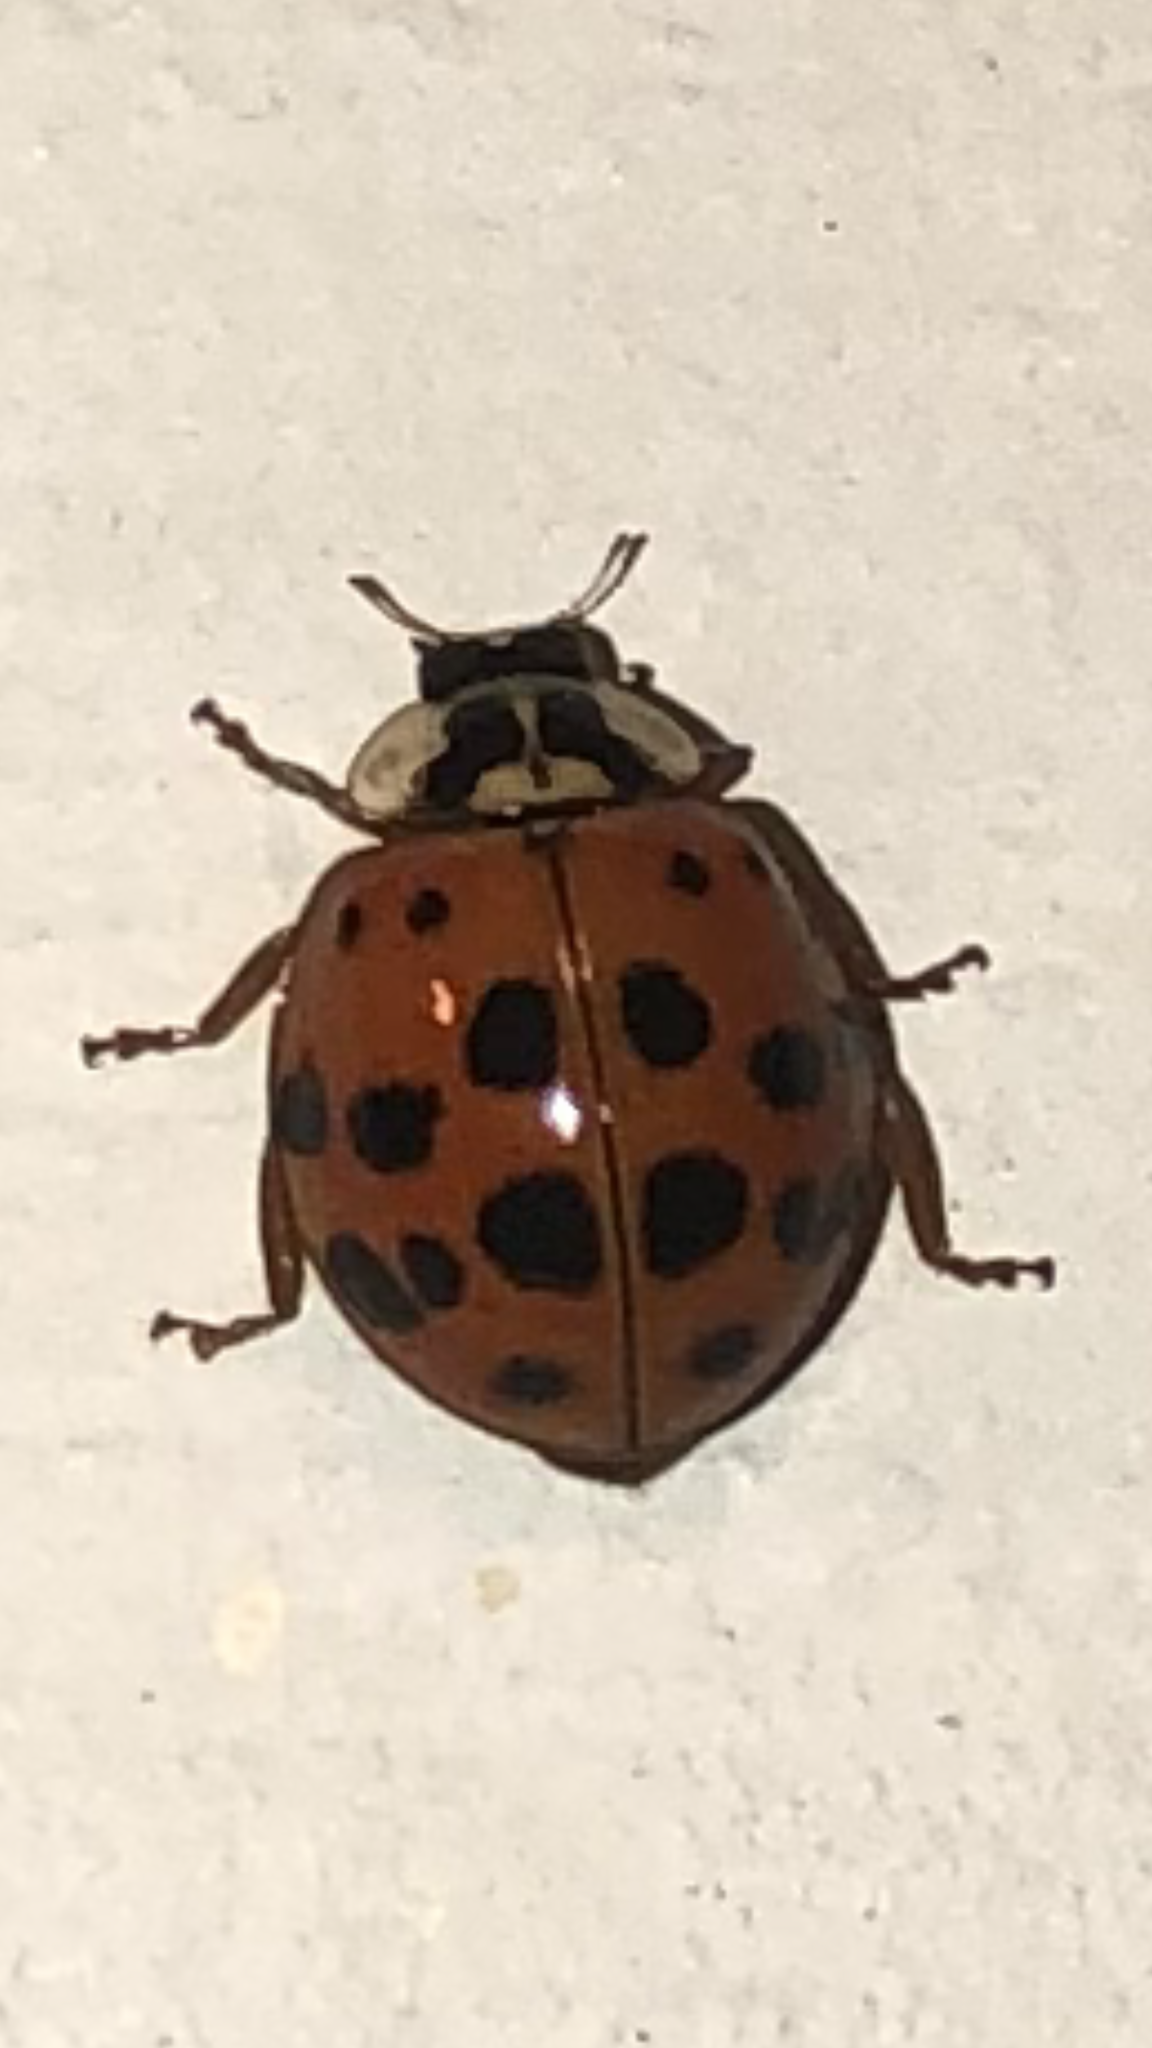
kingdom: Animalia
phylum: Arthropoda
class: Insecta
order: Coleoptera
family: Coccinellidae
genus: Harmonia
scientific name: Harmonia axyridis
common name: Harlequin ladybird
